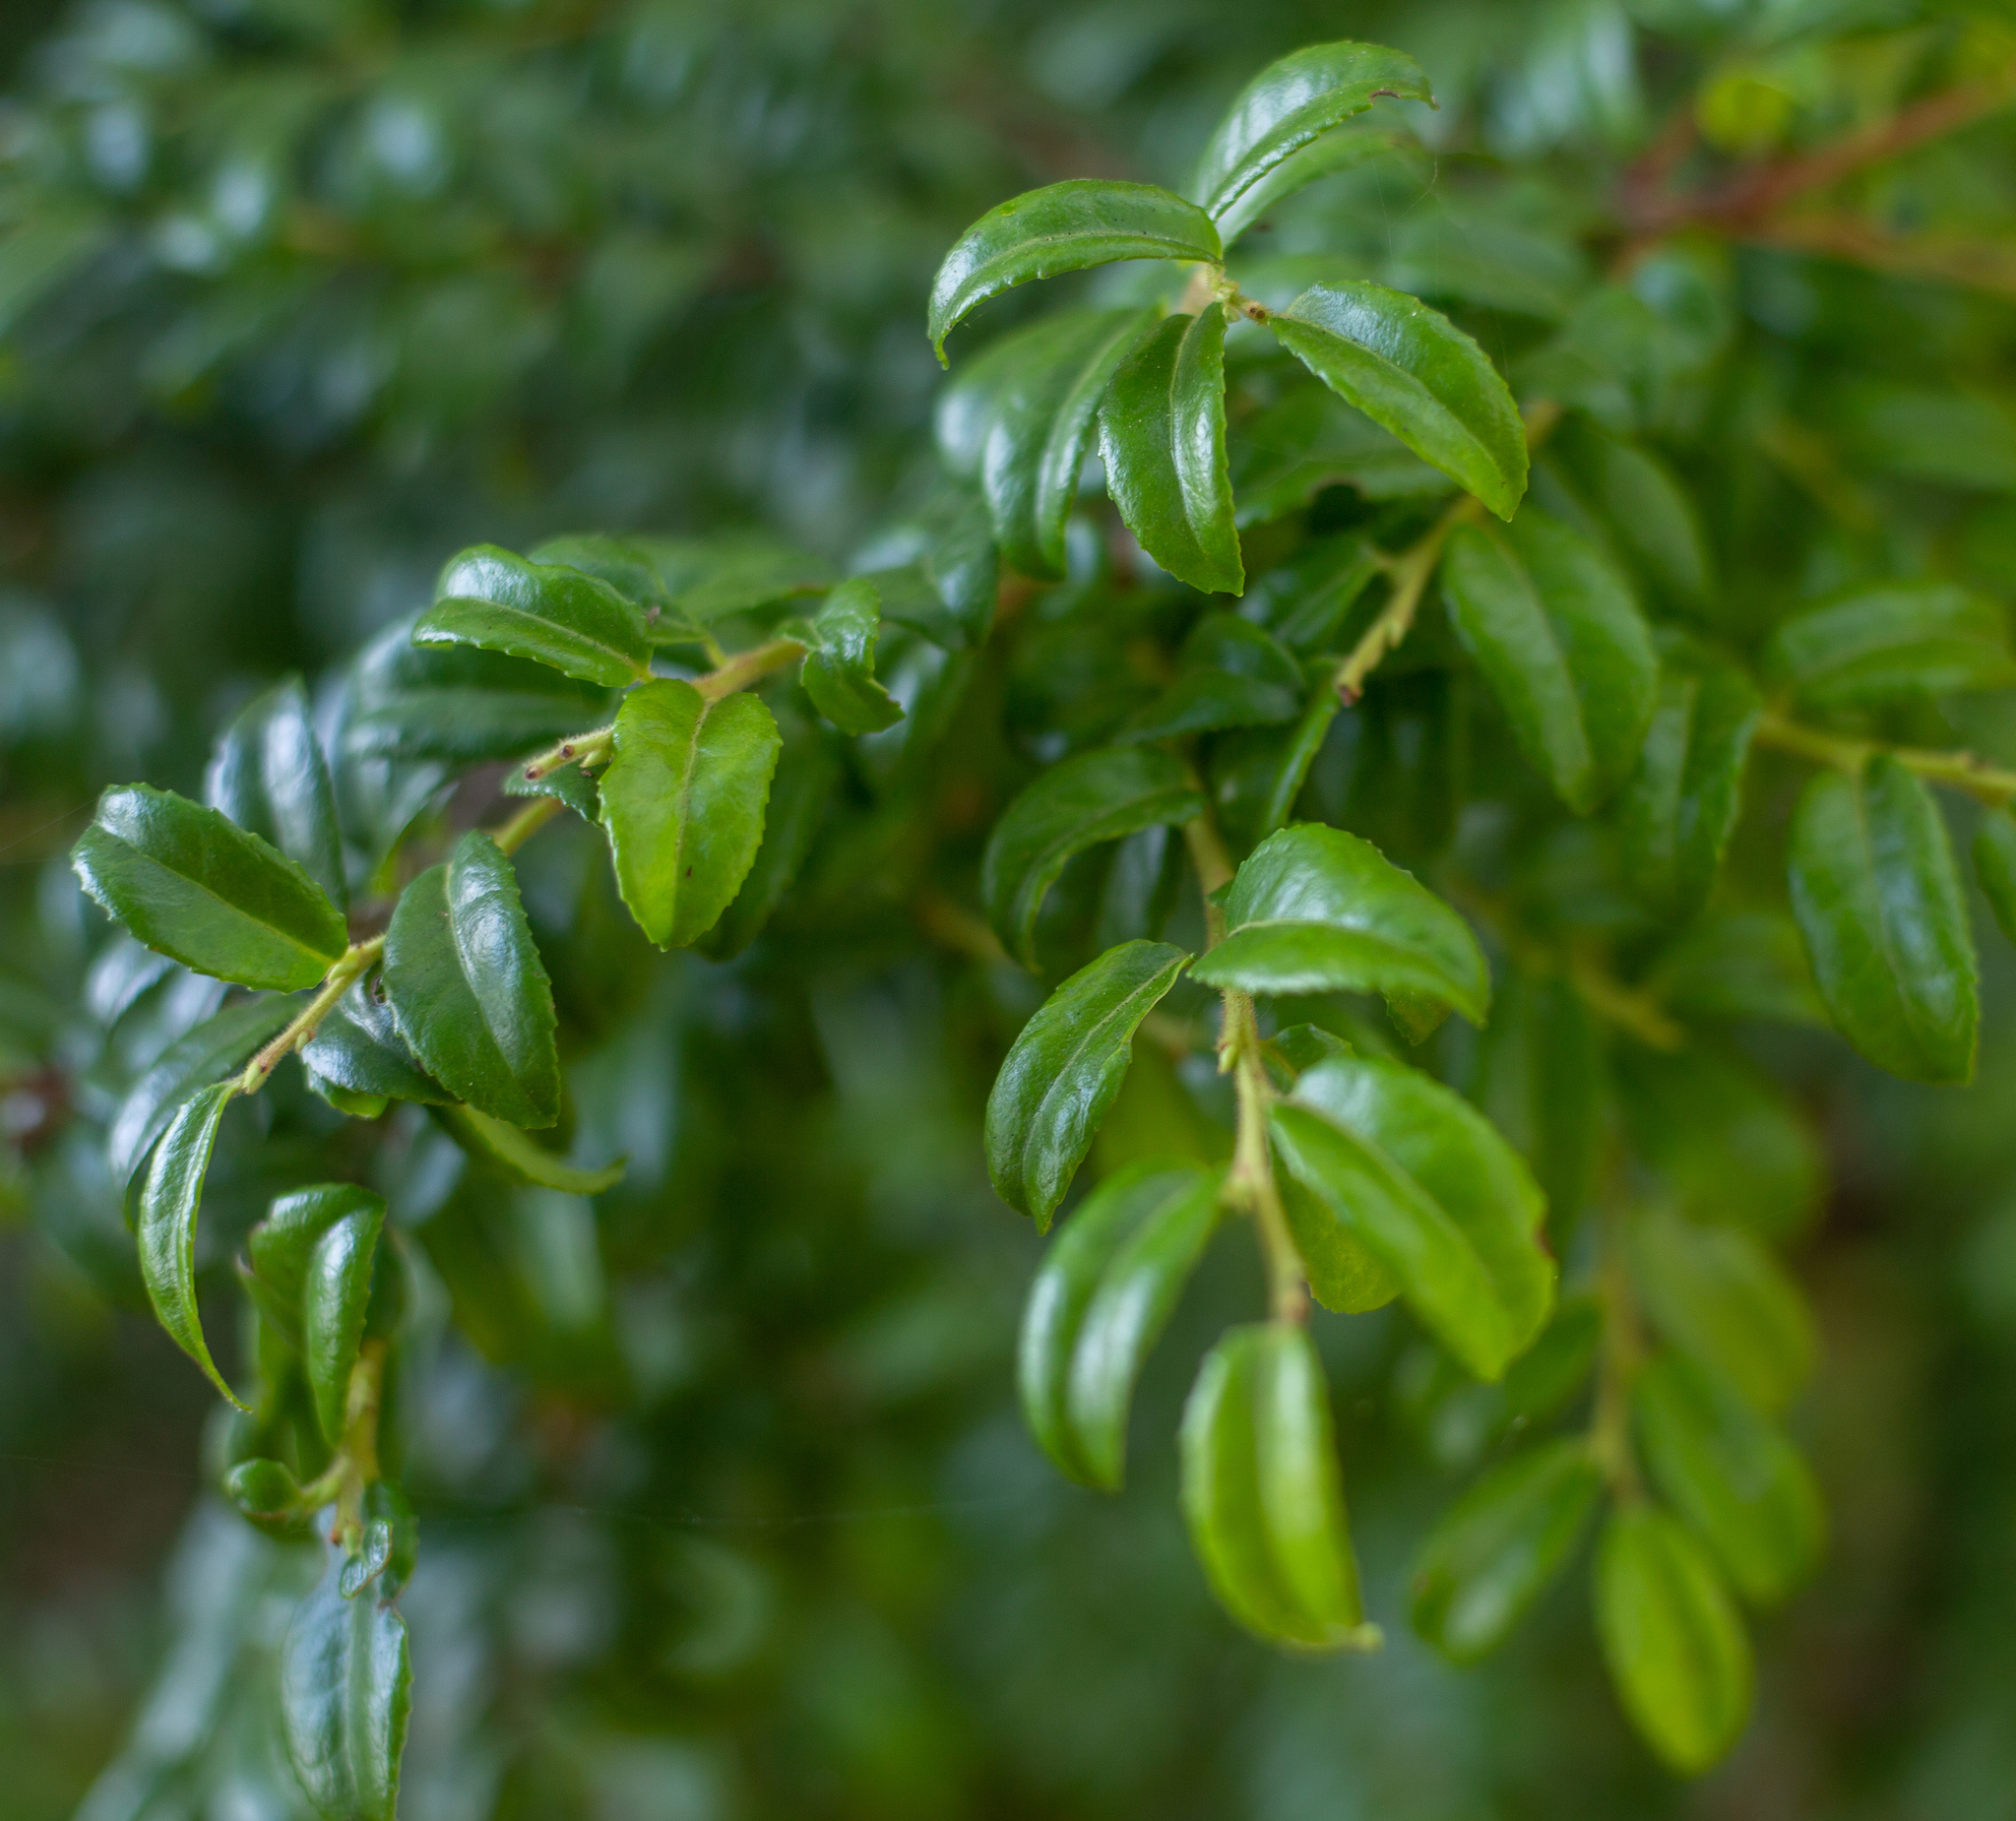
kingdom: Plantae
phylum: Tracheophyta
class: Magnoliopsida
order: Ericales
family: Ericaceae
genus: Vaccinium
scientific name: Vaccinium ovatum
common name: California-huckleberry
